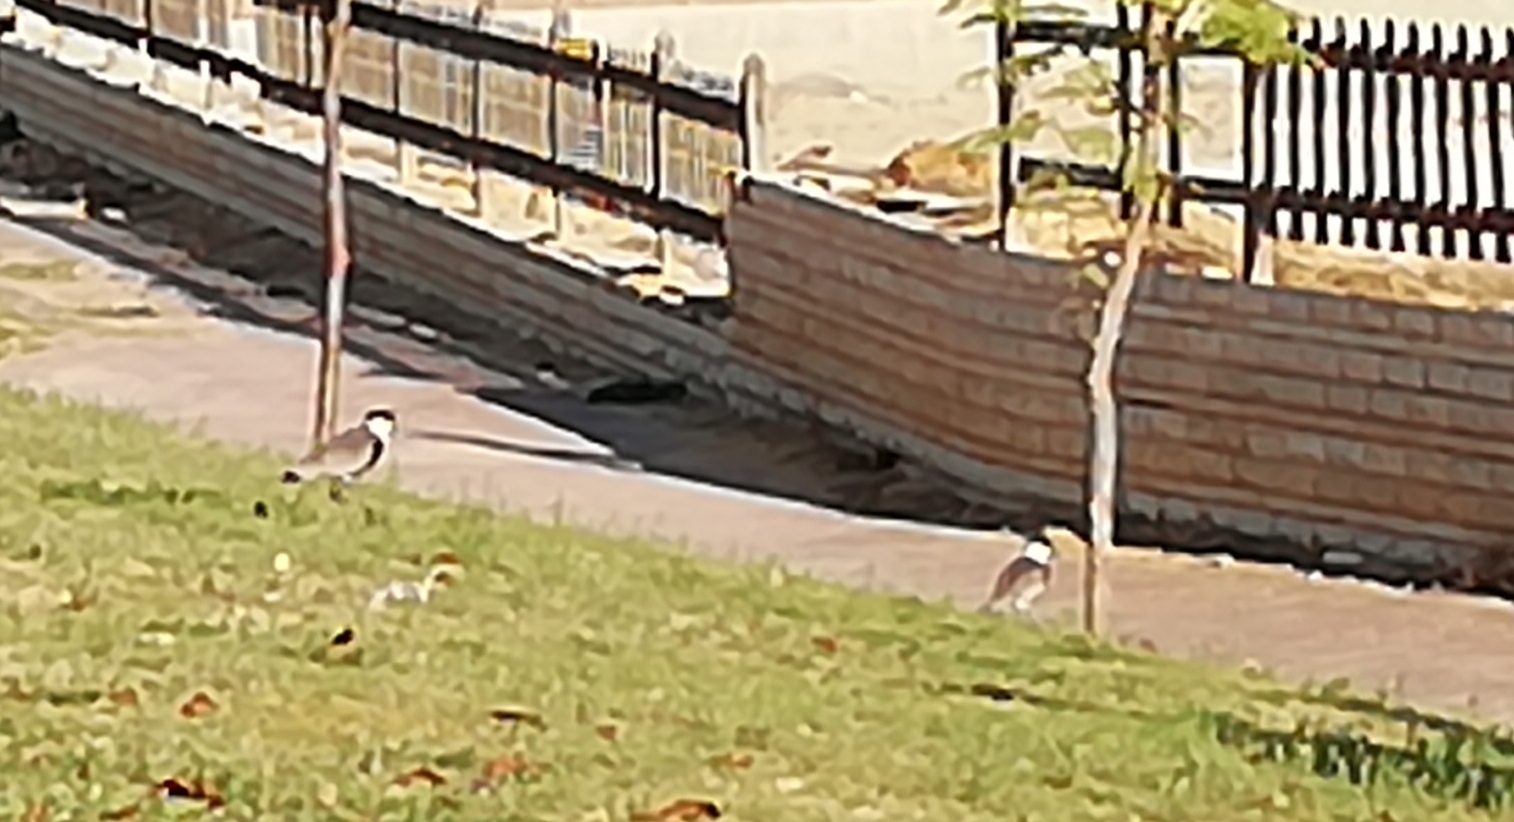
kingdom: Animalia
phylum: Chordata
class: Aves
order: Charadriiformes
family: Charadriidae
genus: Vanellus
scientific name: Vanellus spinosus
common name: Spur-winged lapwing
